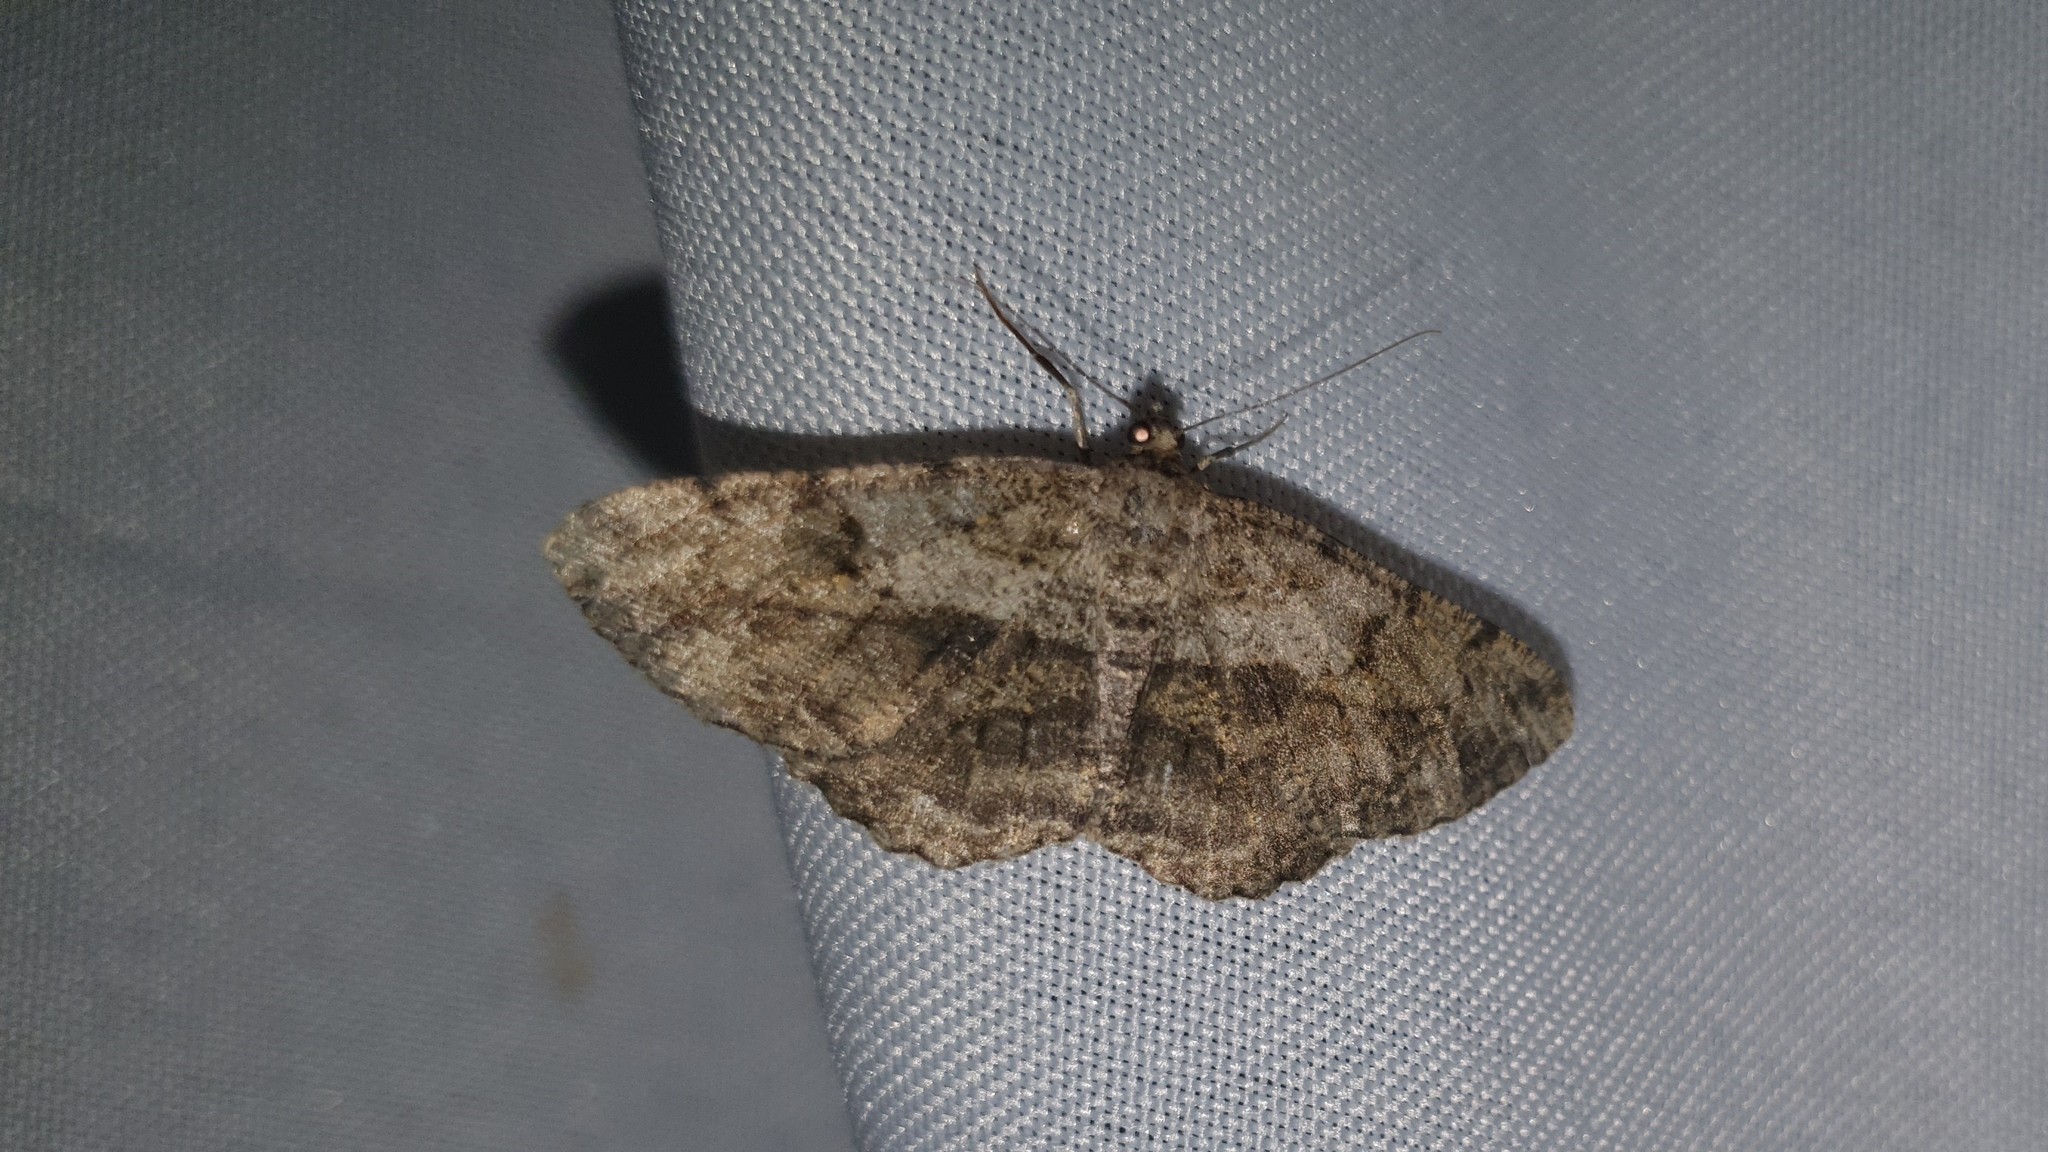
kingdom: Animalia
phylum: Arthropoda
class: Insecta
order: Lepidoptera
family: Geometridae
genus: Peribatodes
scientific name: Peribatodes rhomboidaria
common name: Willow beauty
